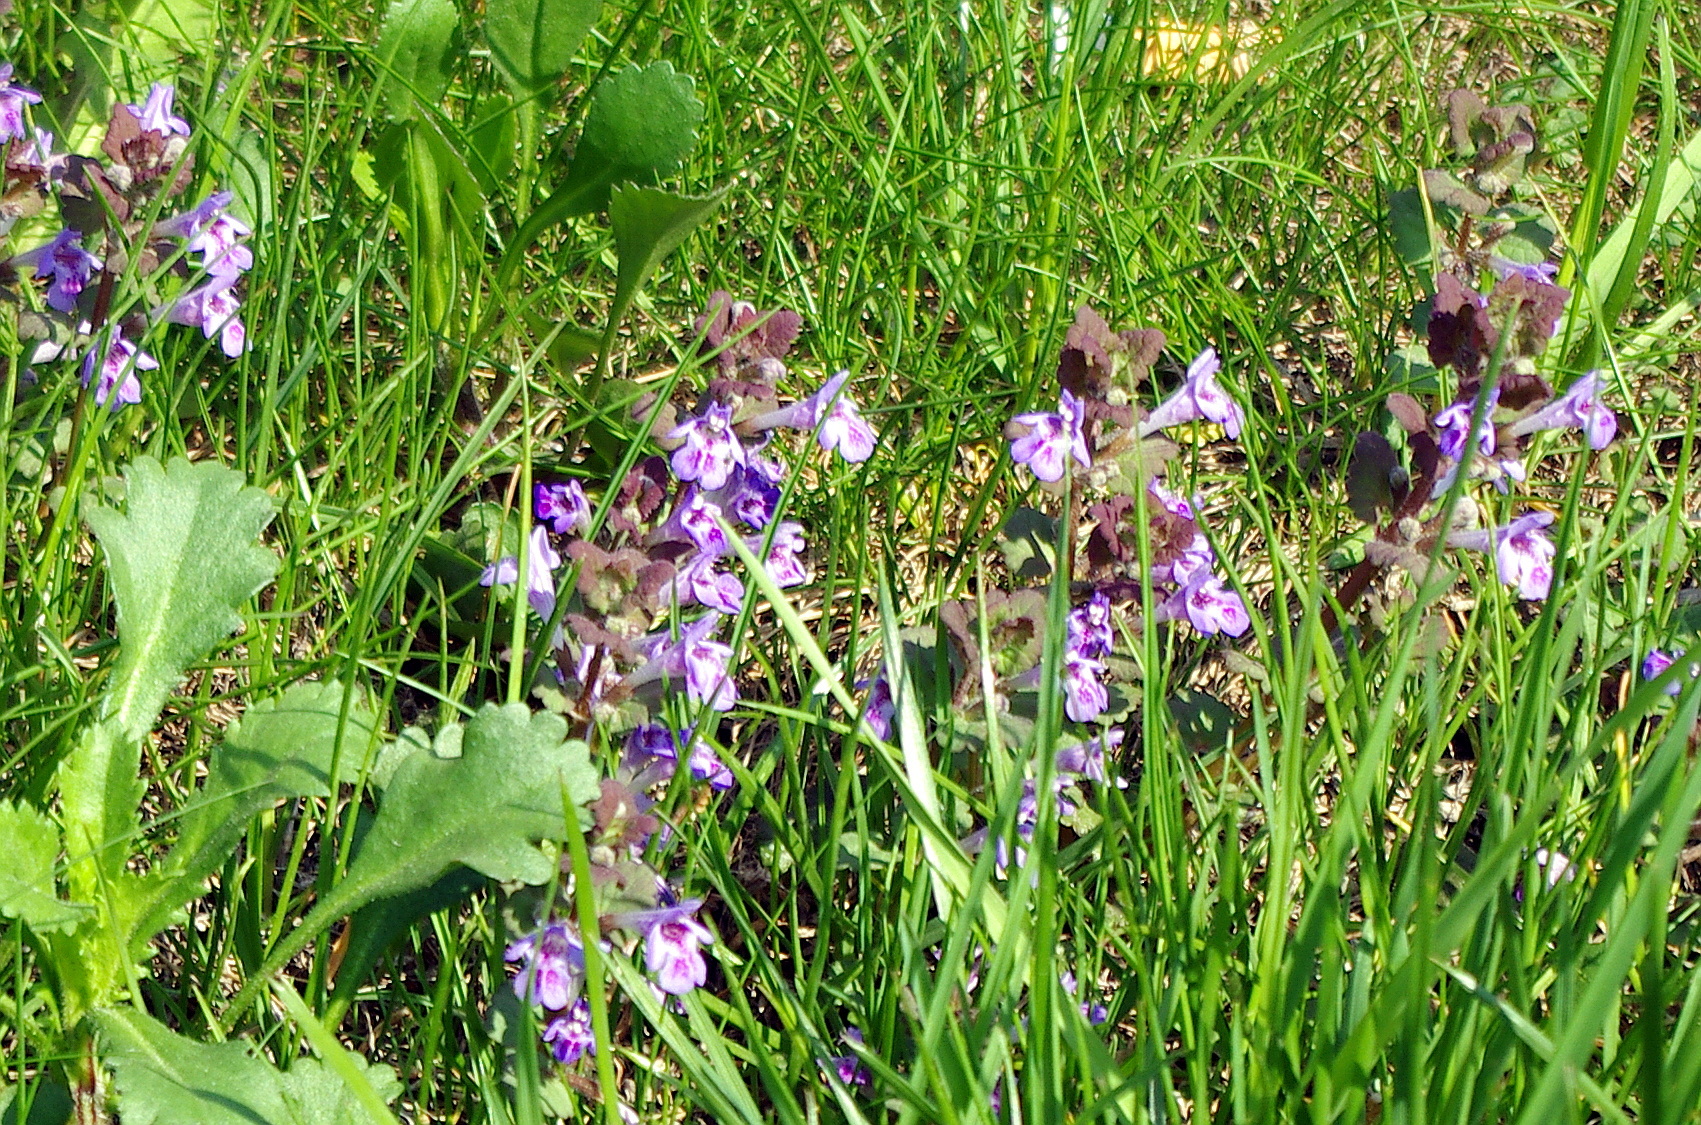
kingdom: Plantae
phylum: Tracheophyta
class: Magnoliopsida
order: Lamiales
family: Lamiaceae
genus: Glechoma
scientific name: Glechoma hederacea
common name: Ground ivy
